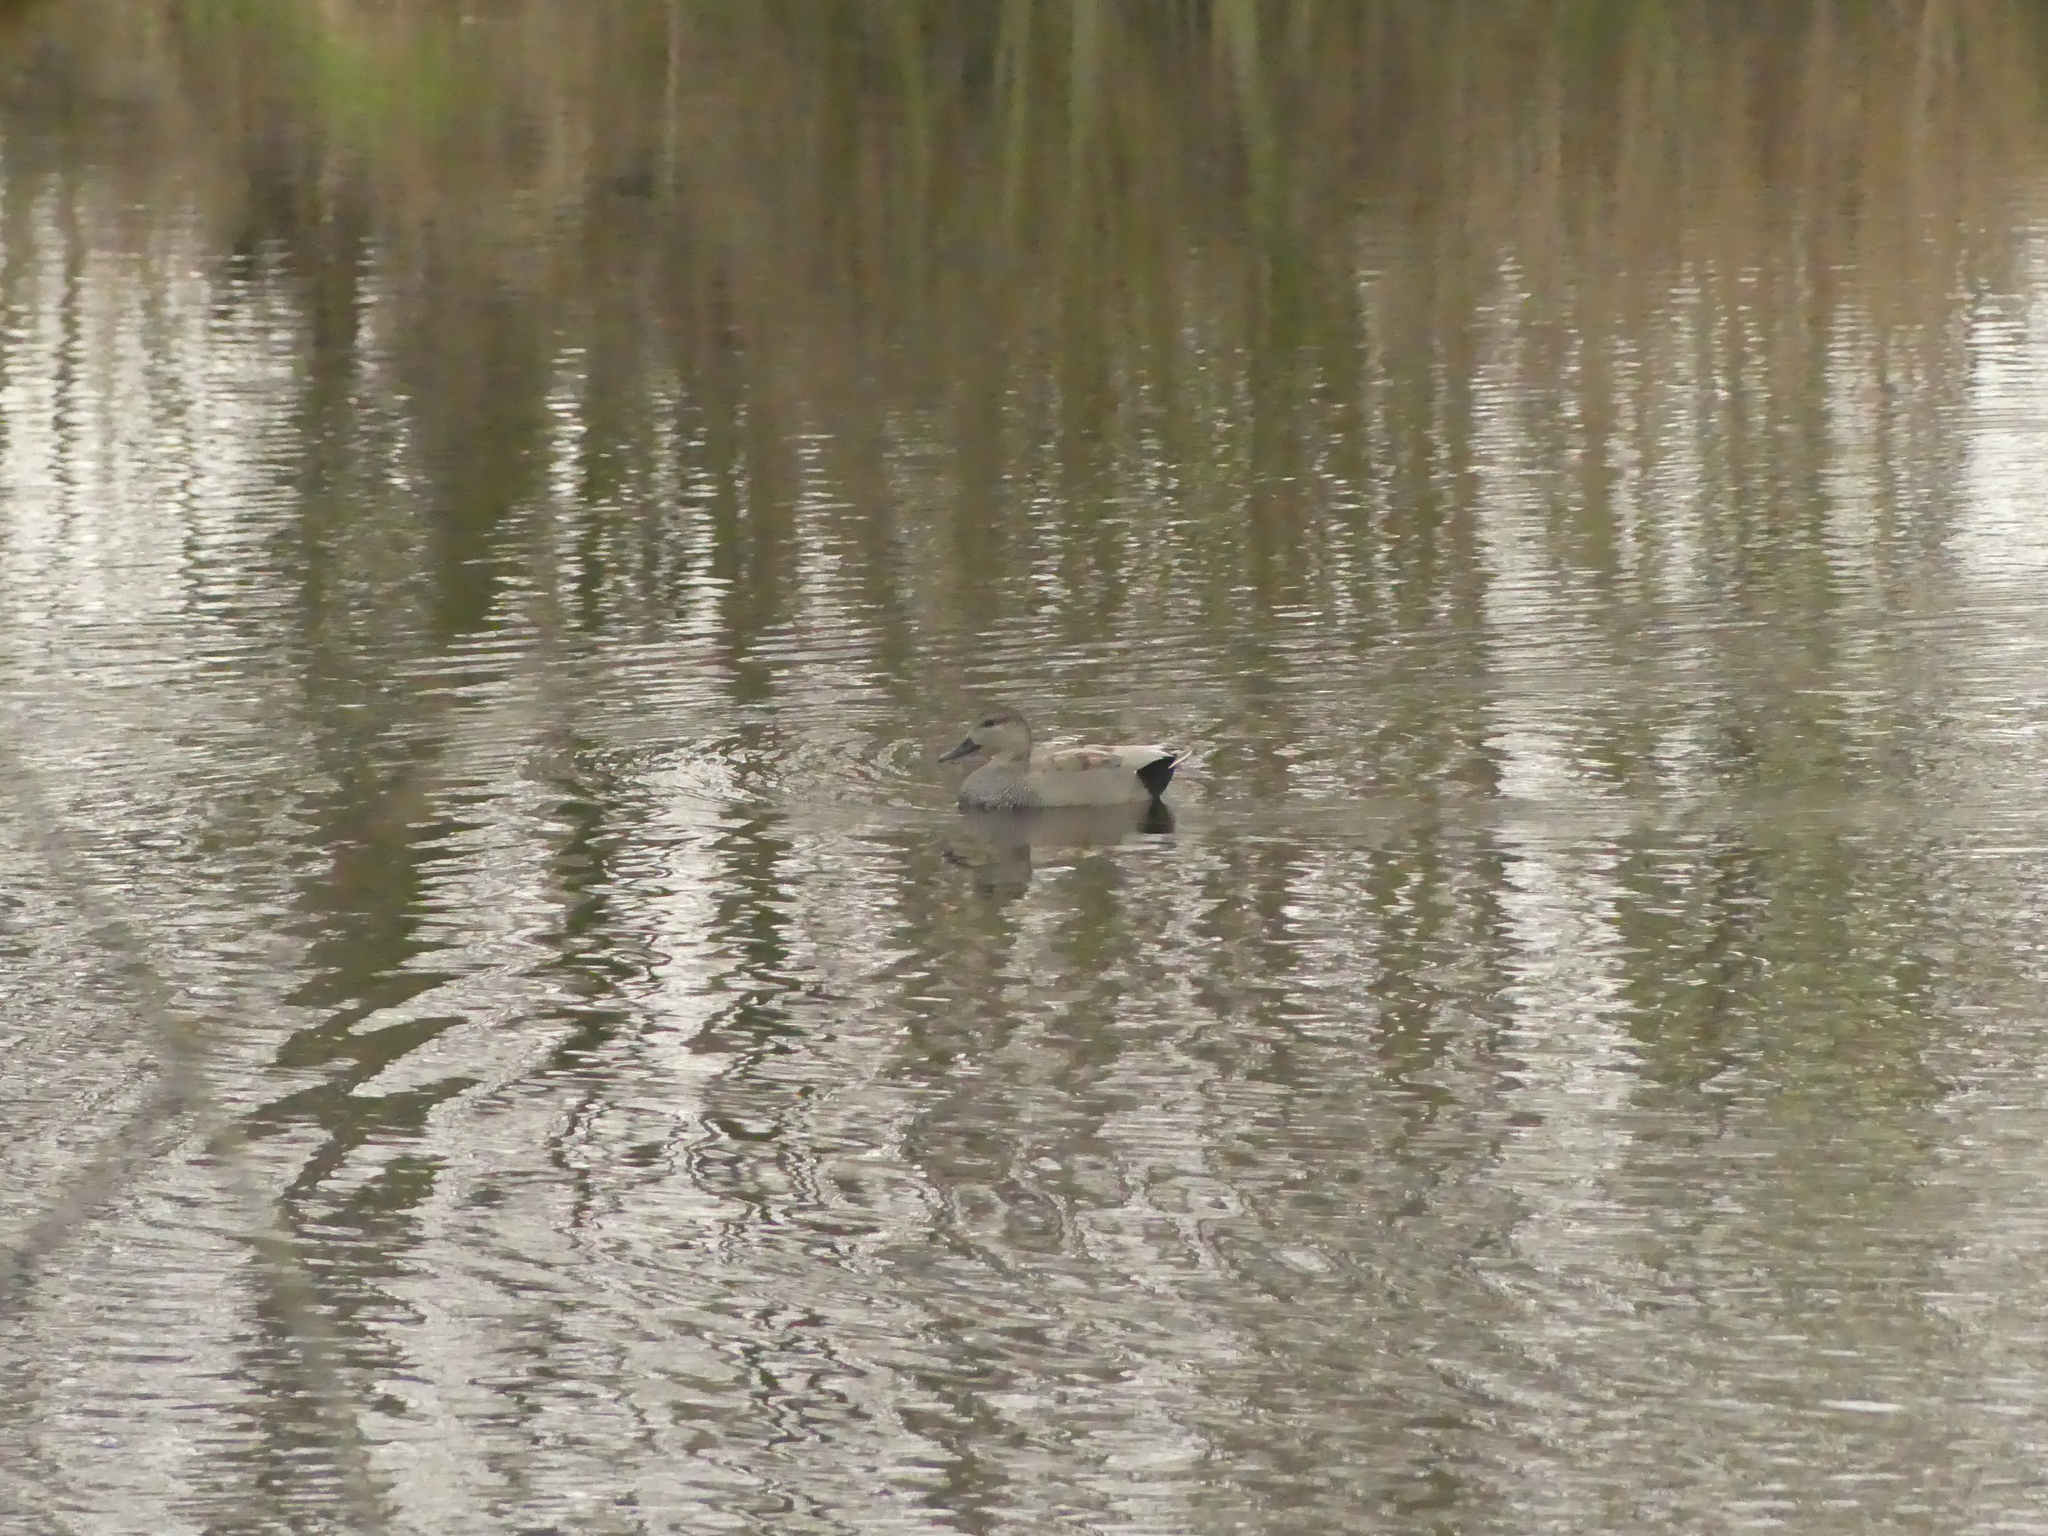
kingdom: Animalia
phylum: Chordata
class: Aves
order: Anseriformes
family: Anatidae
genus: Mareca
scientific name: Mareca strepera
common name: Gadwall
